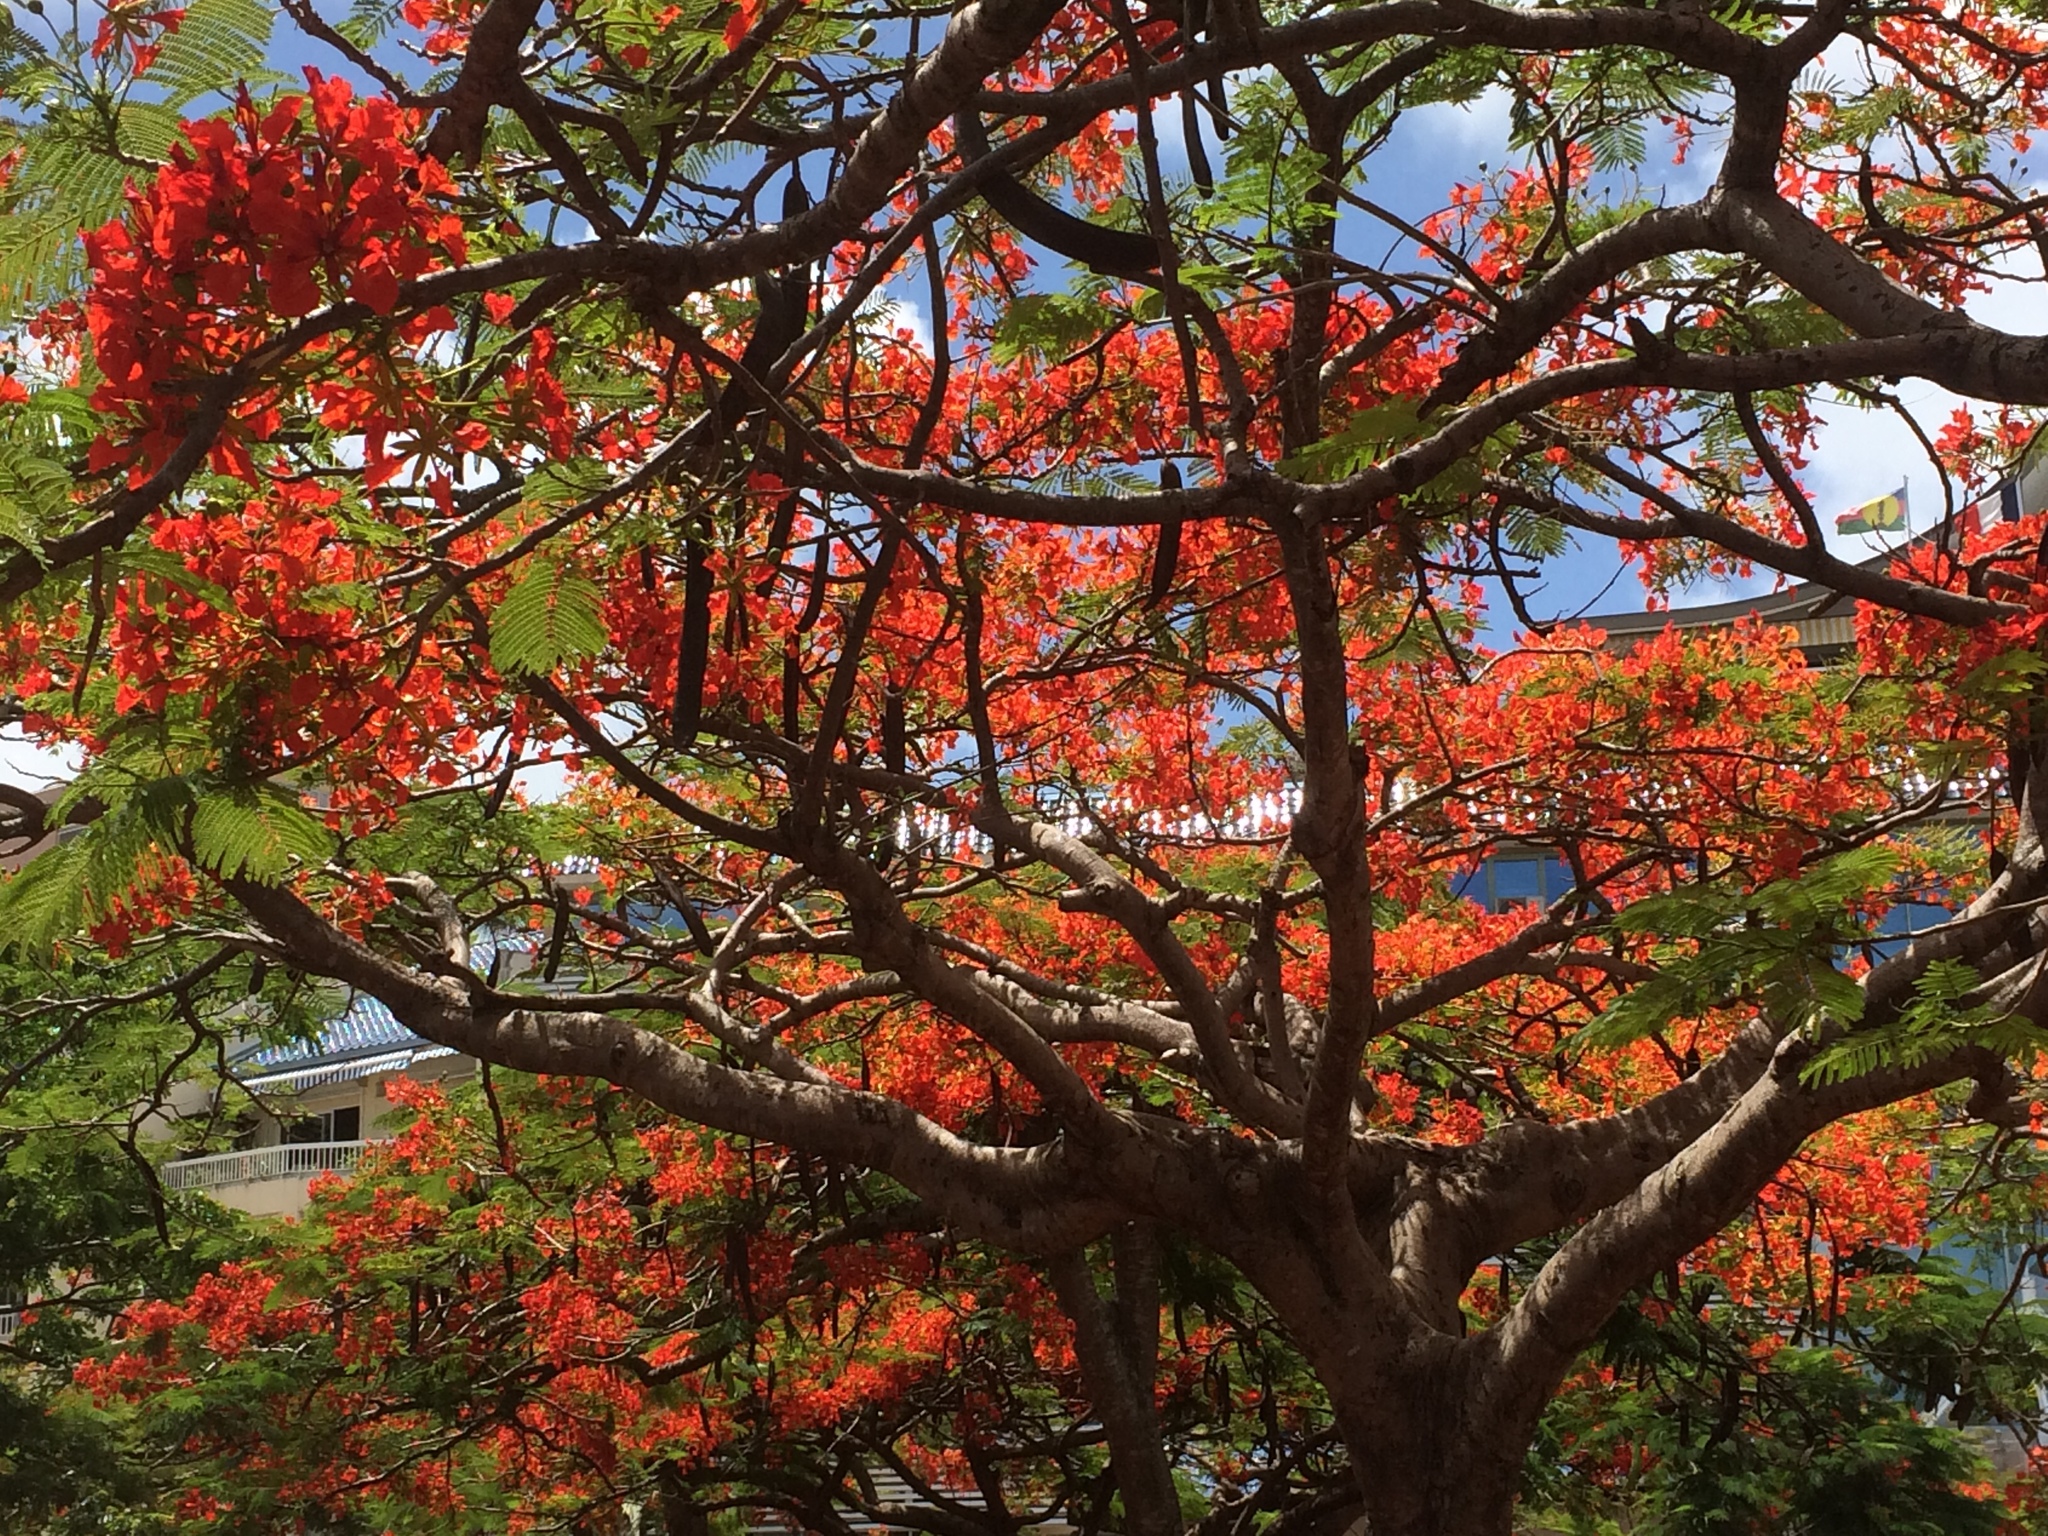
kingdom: Plantae
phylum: Tracheophyta
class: Magnoliopsida
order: Fabales
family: Fabaceae
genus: Delonix
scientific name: Delonix regia
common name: Royal poinciana
